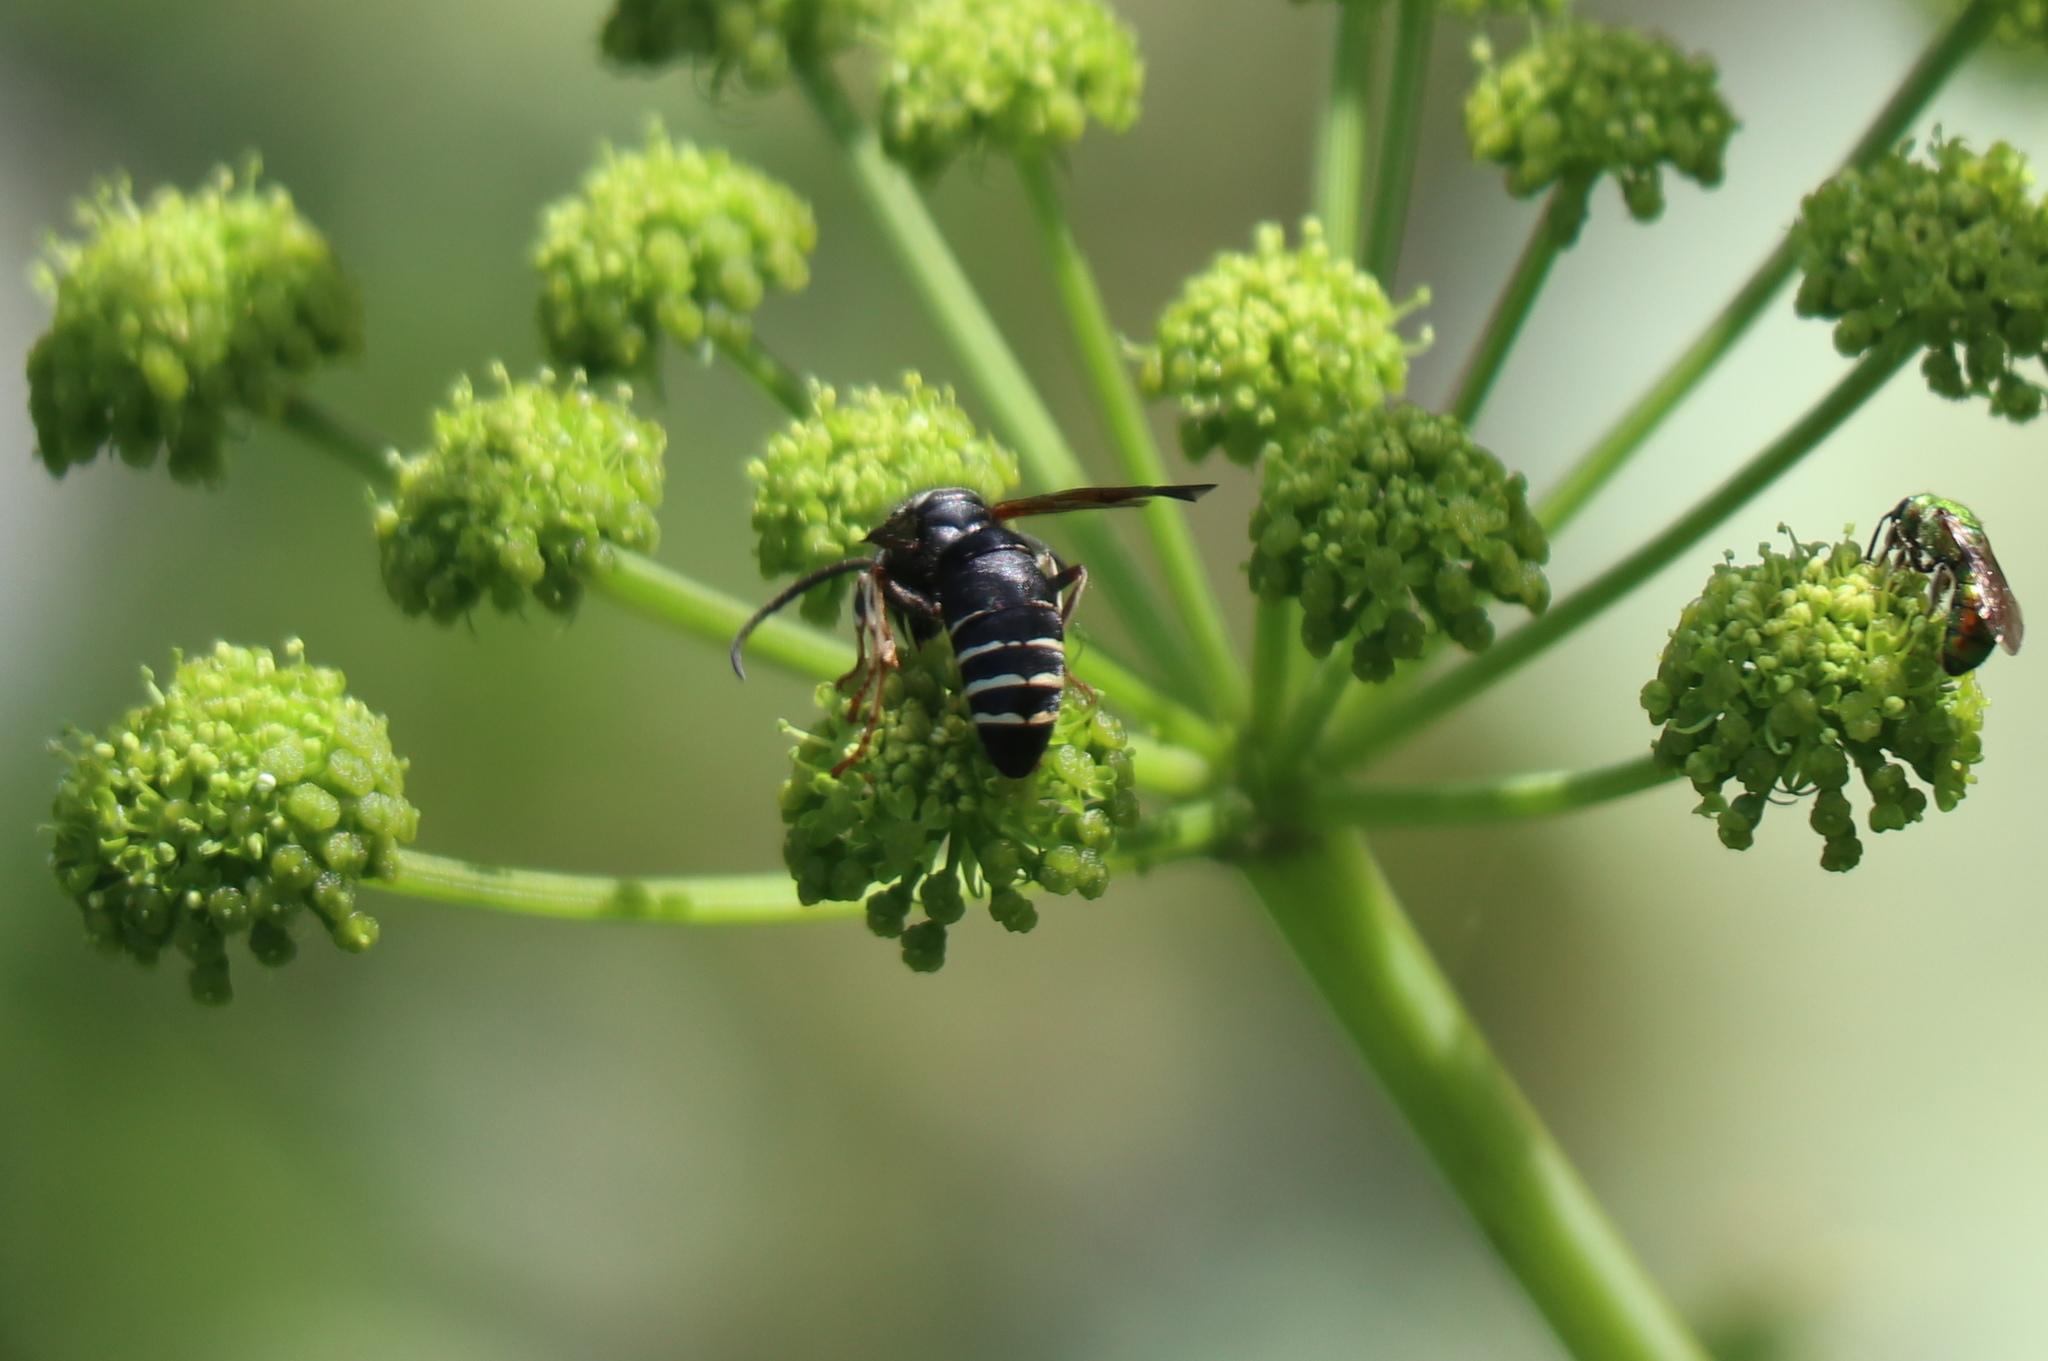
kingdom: Animalia
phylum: Arthropoda
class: Insecta
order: Hymenoptera
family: Vespidae
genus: Dolichovespula
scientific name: Dolichovespula adulterina
